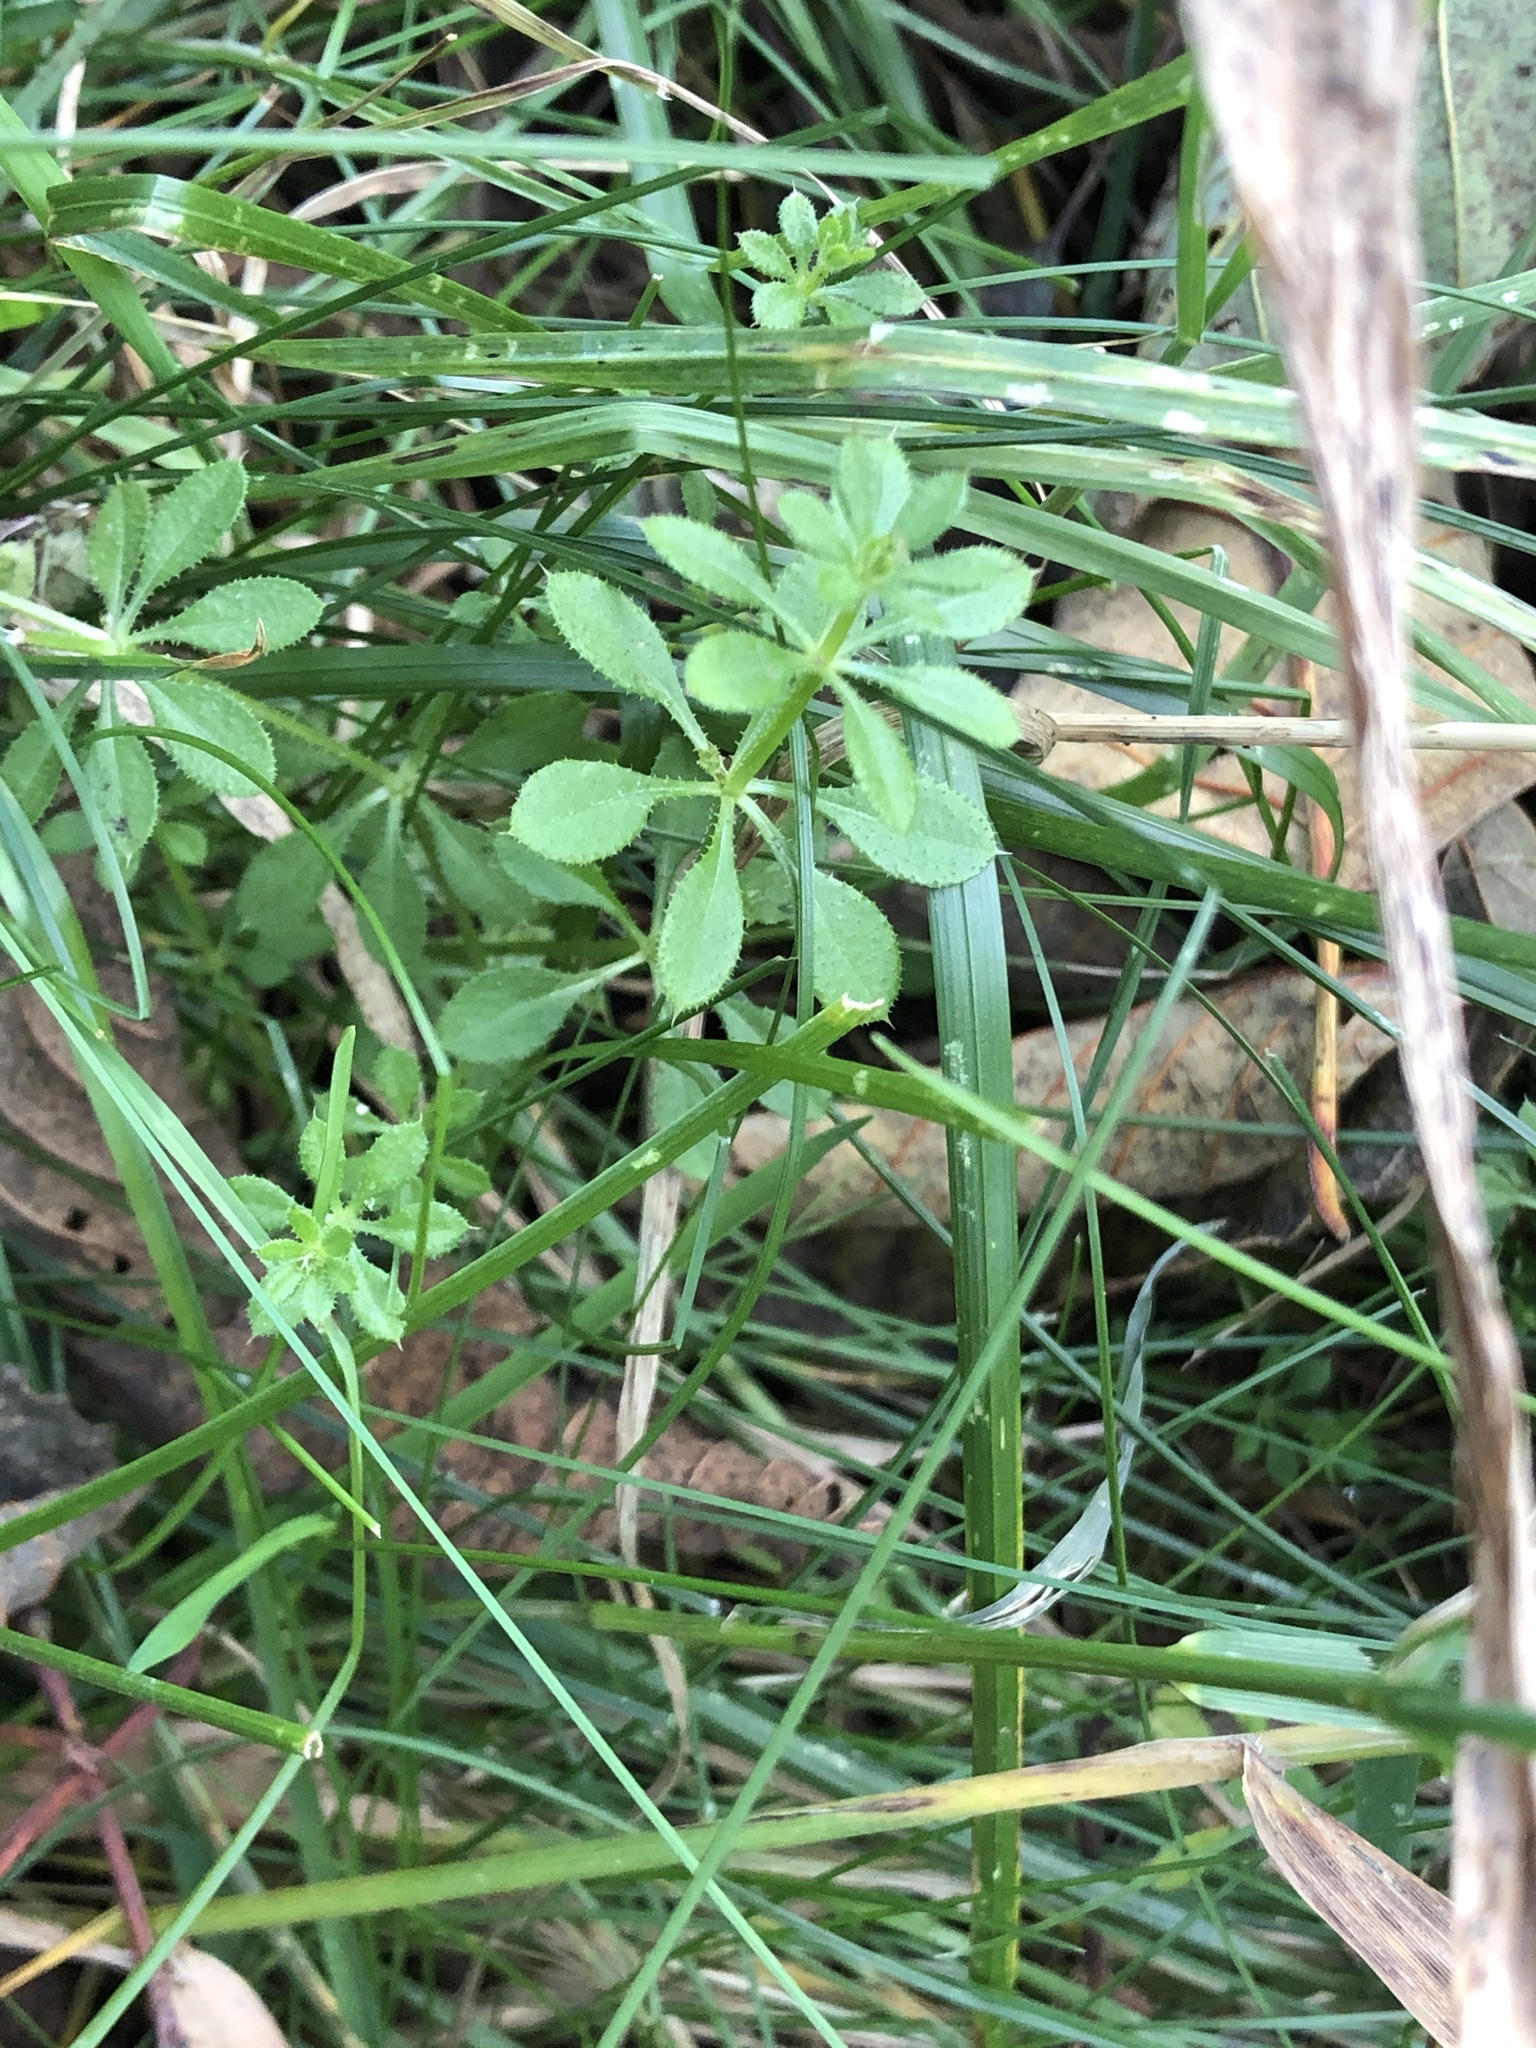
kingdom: Plantae
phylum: Tracheophyta
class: Magnoliopsida
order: Gentianales
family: Rubiaceae
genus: Galium
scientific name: Galium aparine
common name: Cleavers
